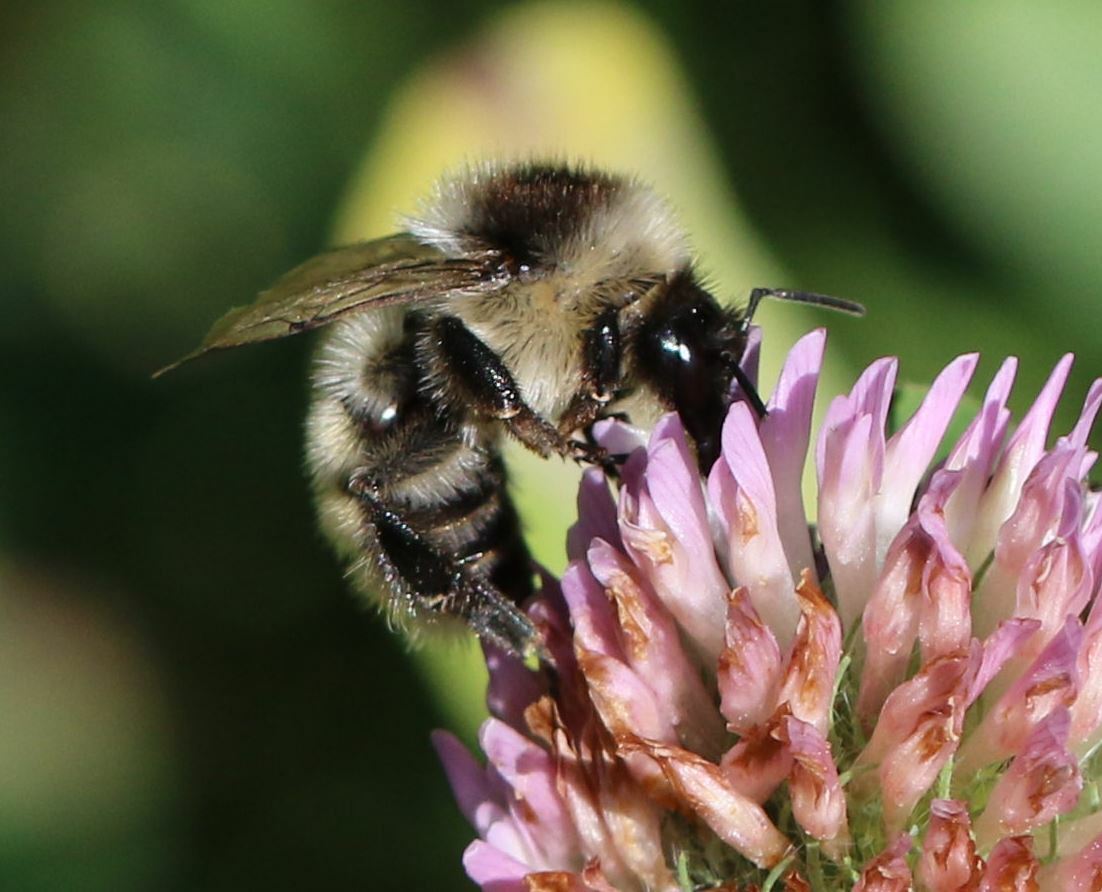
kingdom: Animalia
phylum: Arthropoda
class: Insecta
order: Hymenoptera
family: Apidae
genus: Bombus
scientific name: Bombus mesomelas
